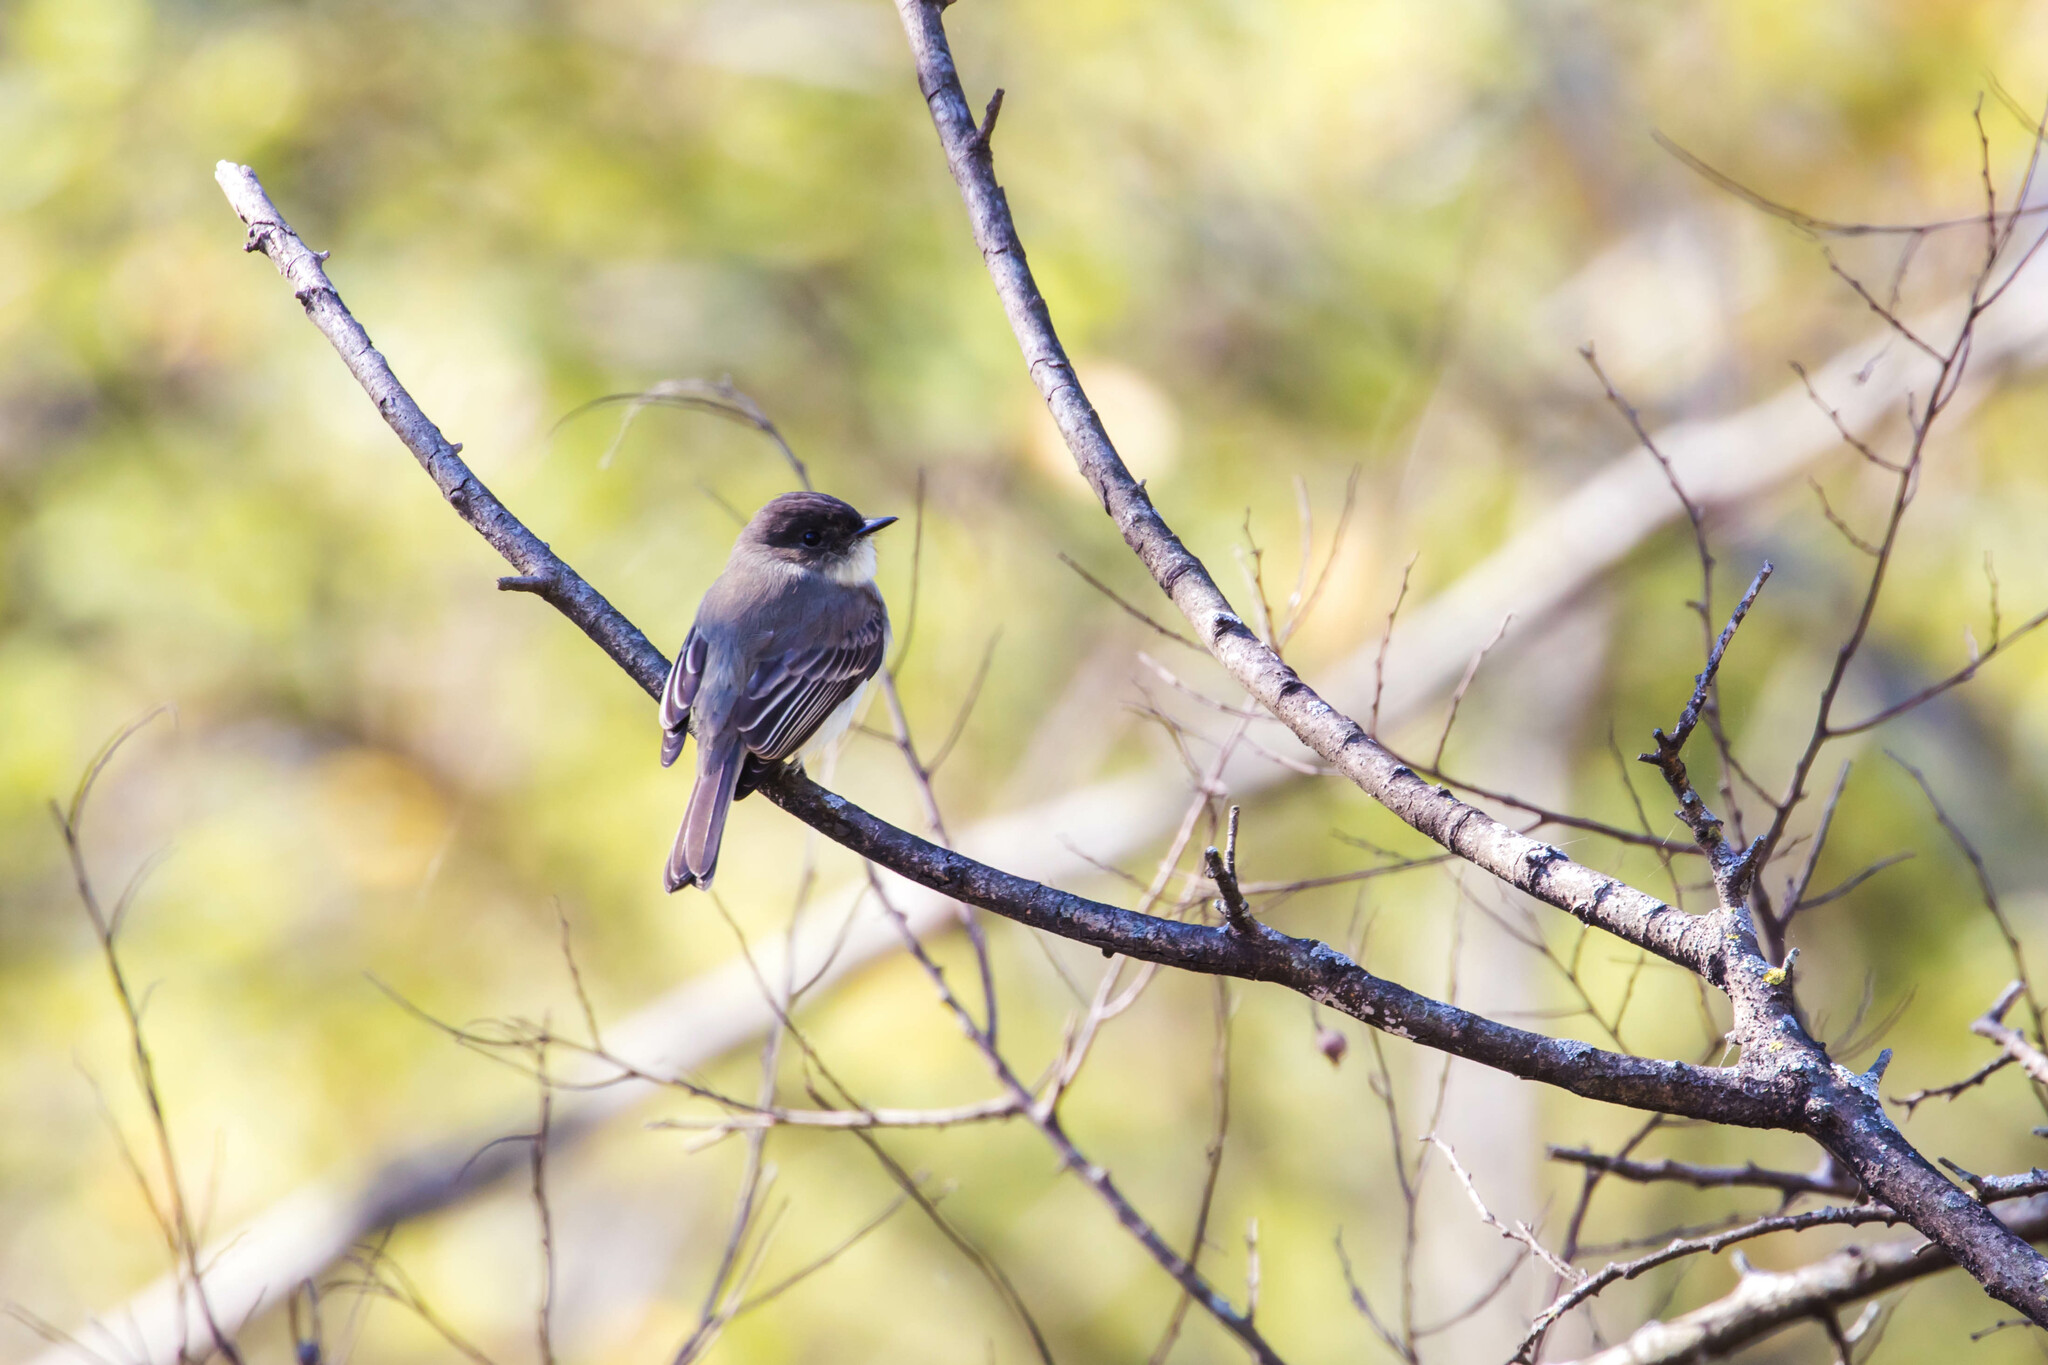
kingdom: Animalia
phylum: Chordata
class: Aves
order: Passeriformes
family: Tyrannidae
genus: Sayornis
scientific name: Sayornis phoebe
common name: Eastern phoebe
